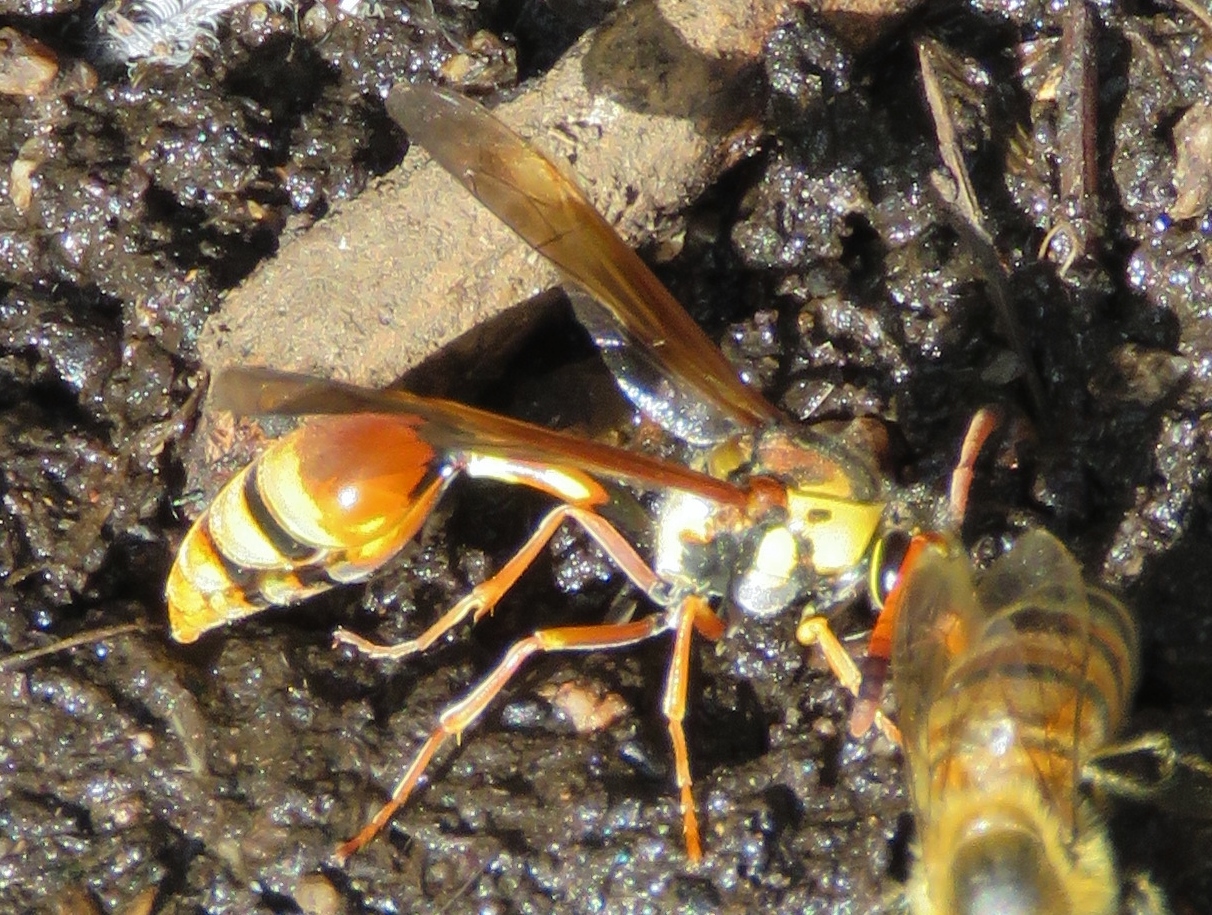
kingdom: Animalia
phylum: Arthropoda
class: Insecta
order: Hymenoptera
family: Eumenidae
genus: Zeta
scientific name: Zeta argillaceum
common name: Potter wasp
